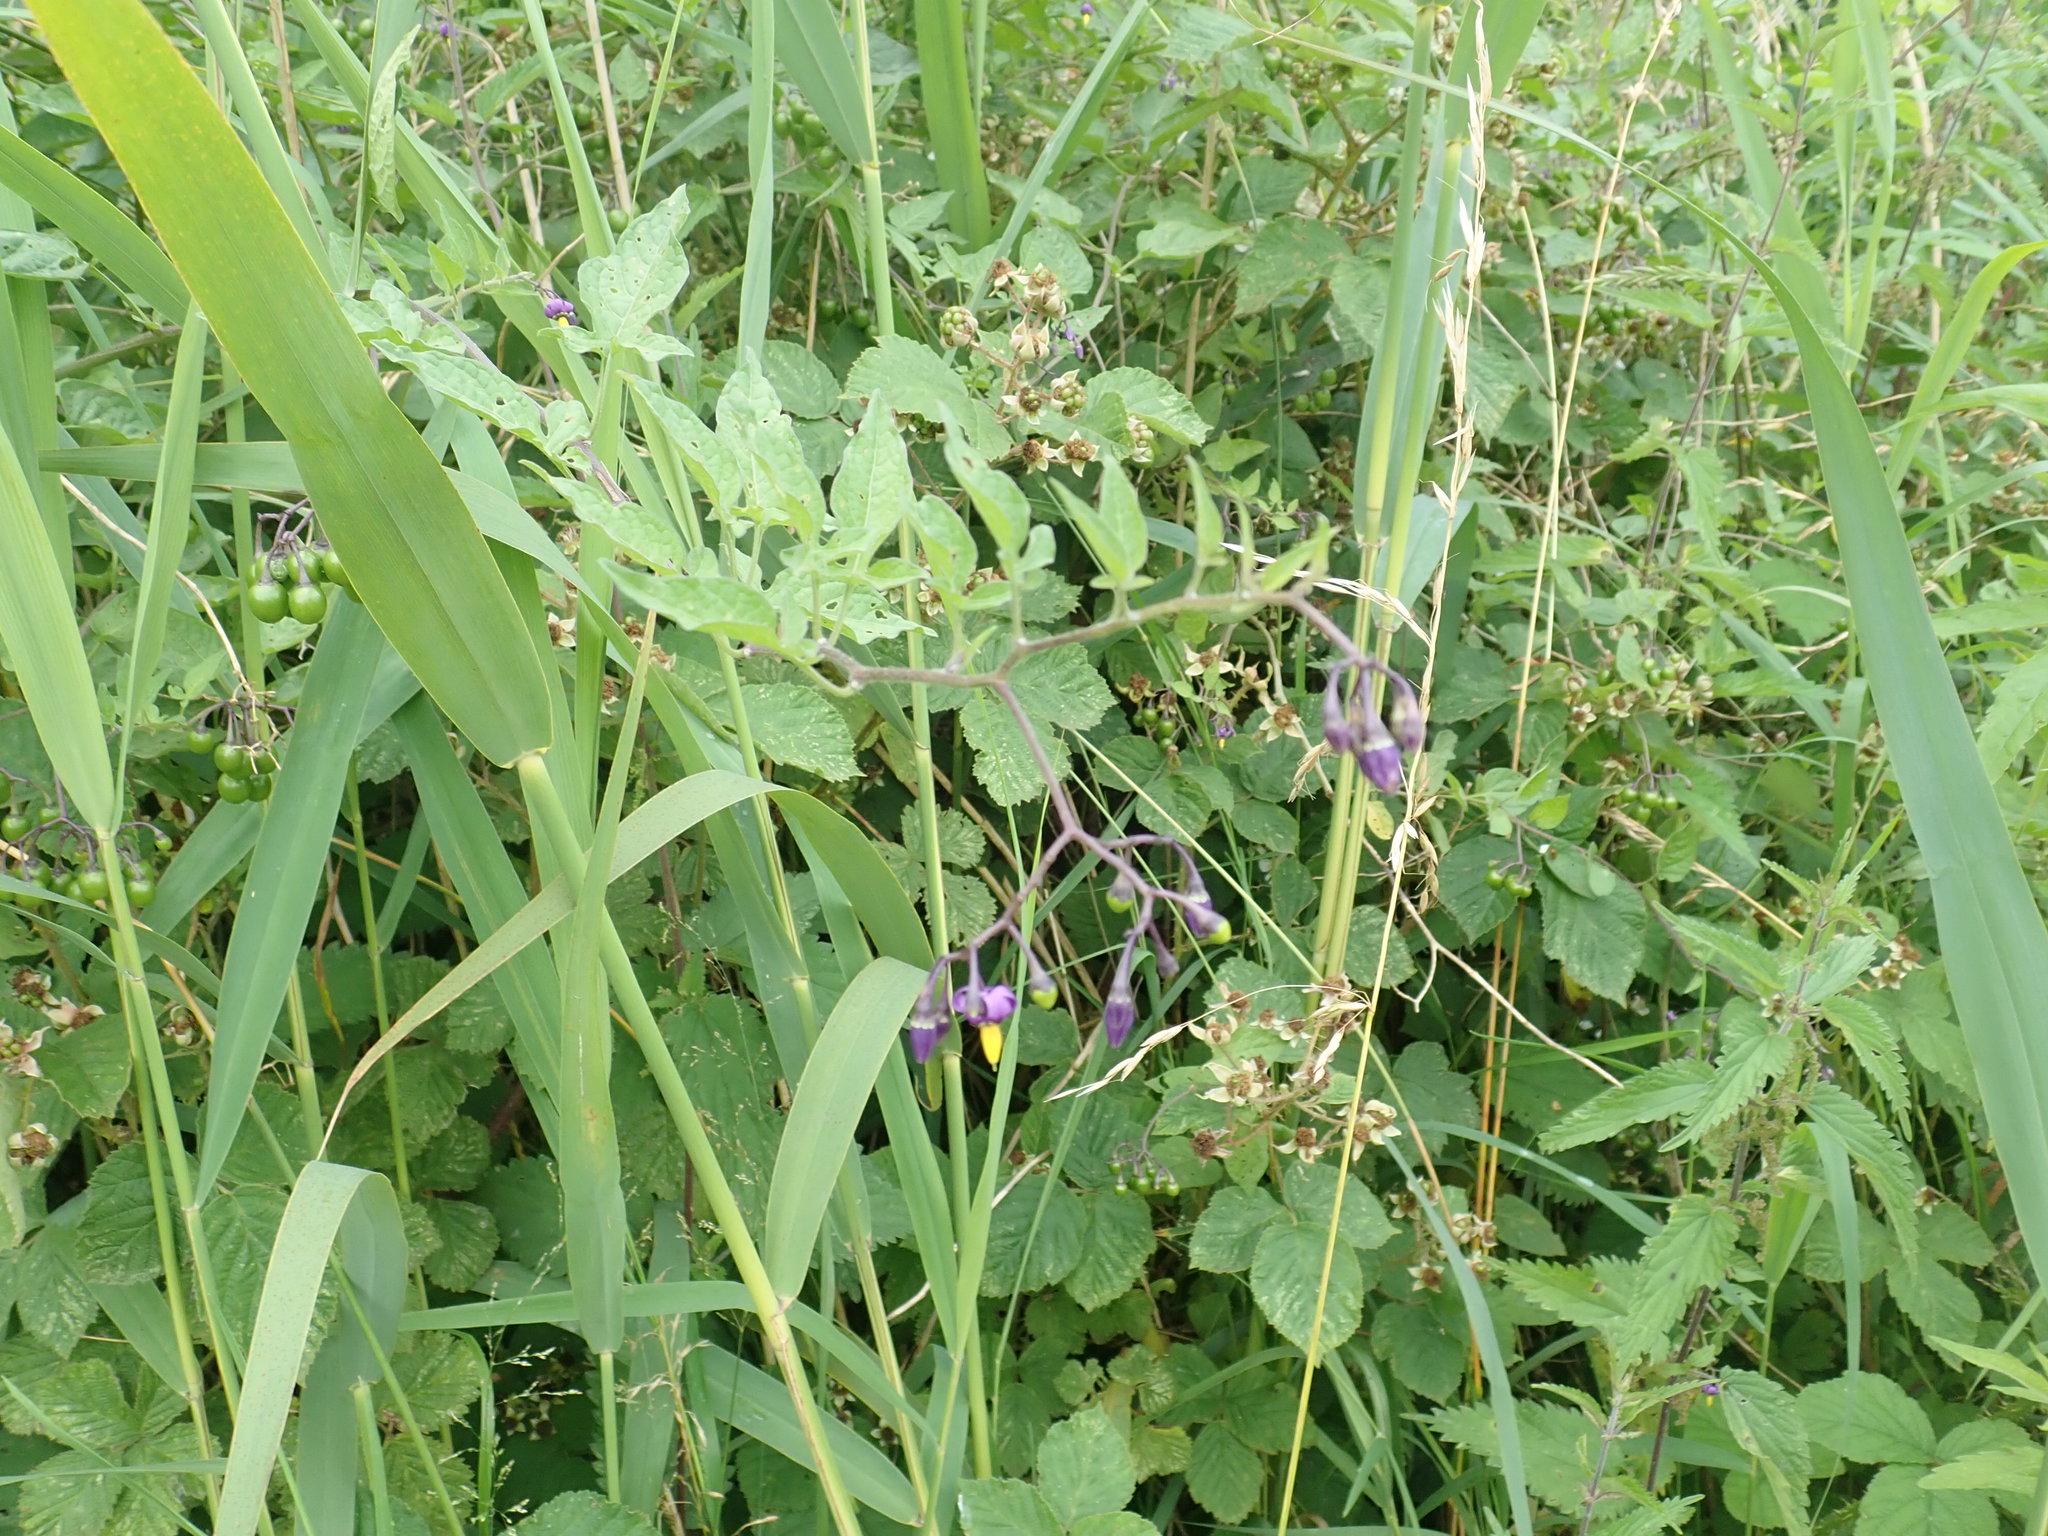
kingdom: Plantae
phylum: Tracheophyta
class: Magnoliopsida
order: Solanales
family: Solanaceae
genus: Solanum
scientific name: Solanum dulcamara
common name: Climbing nightshade
